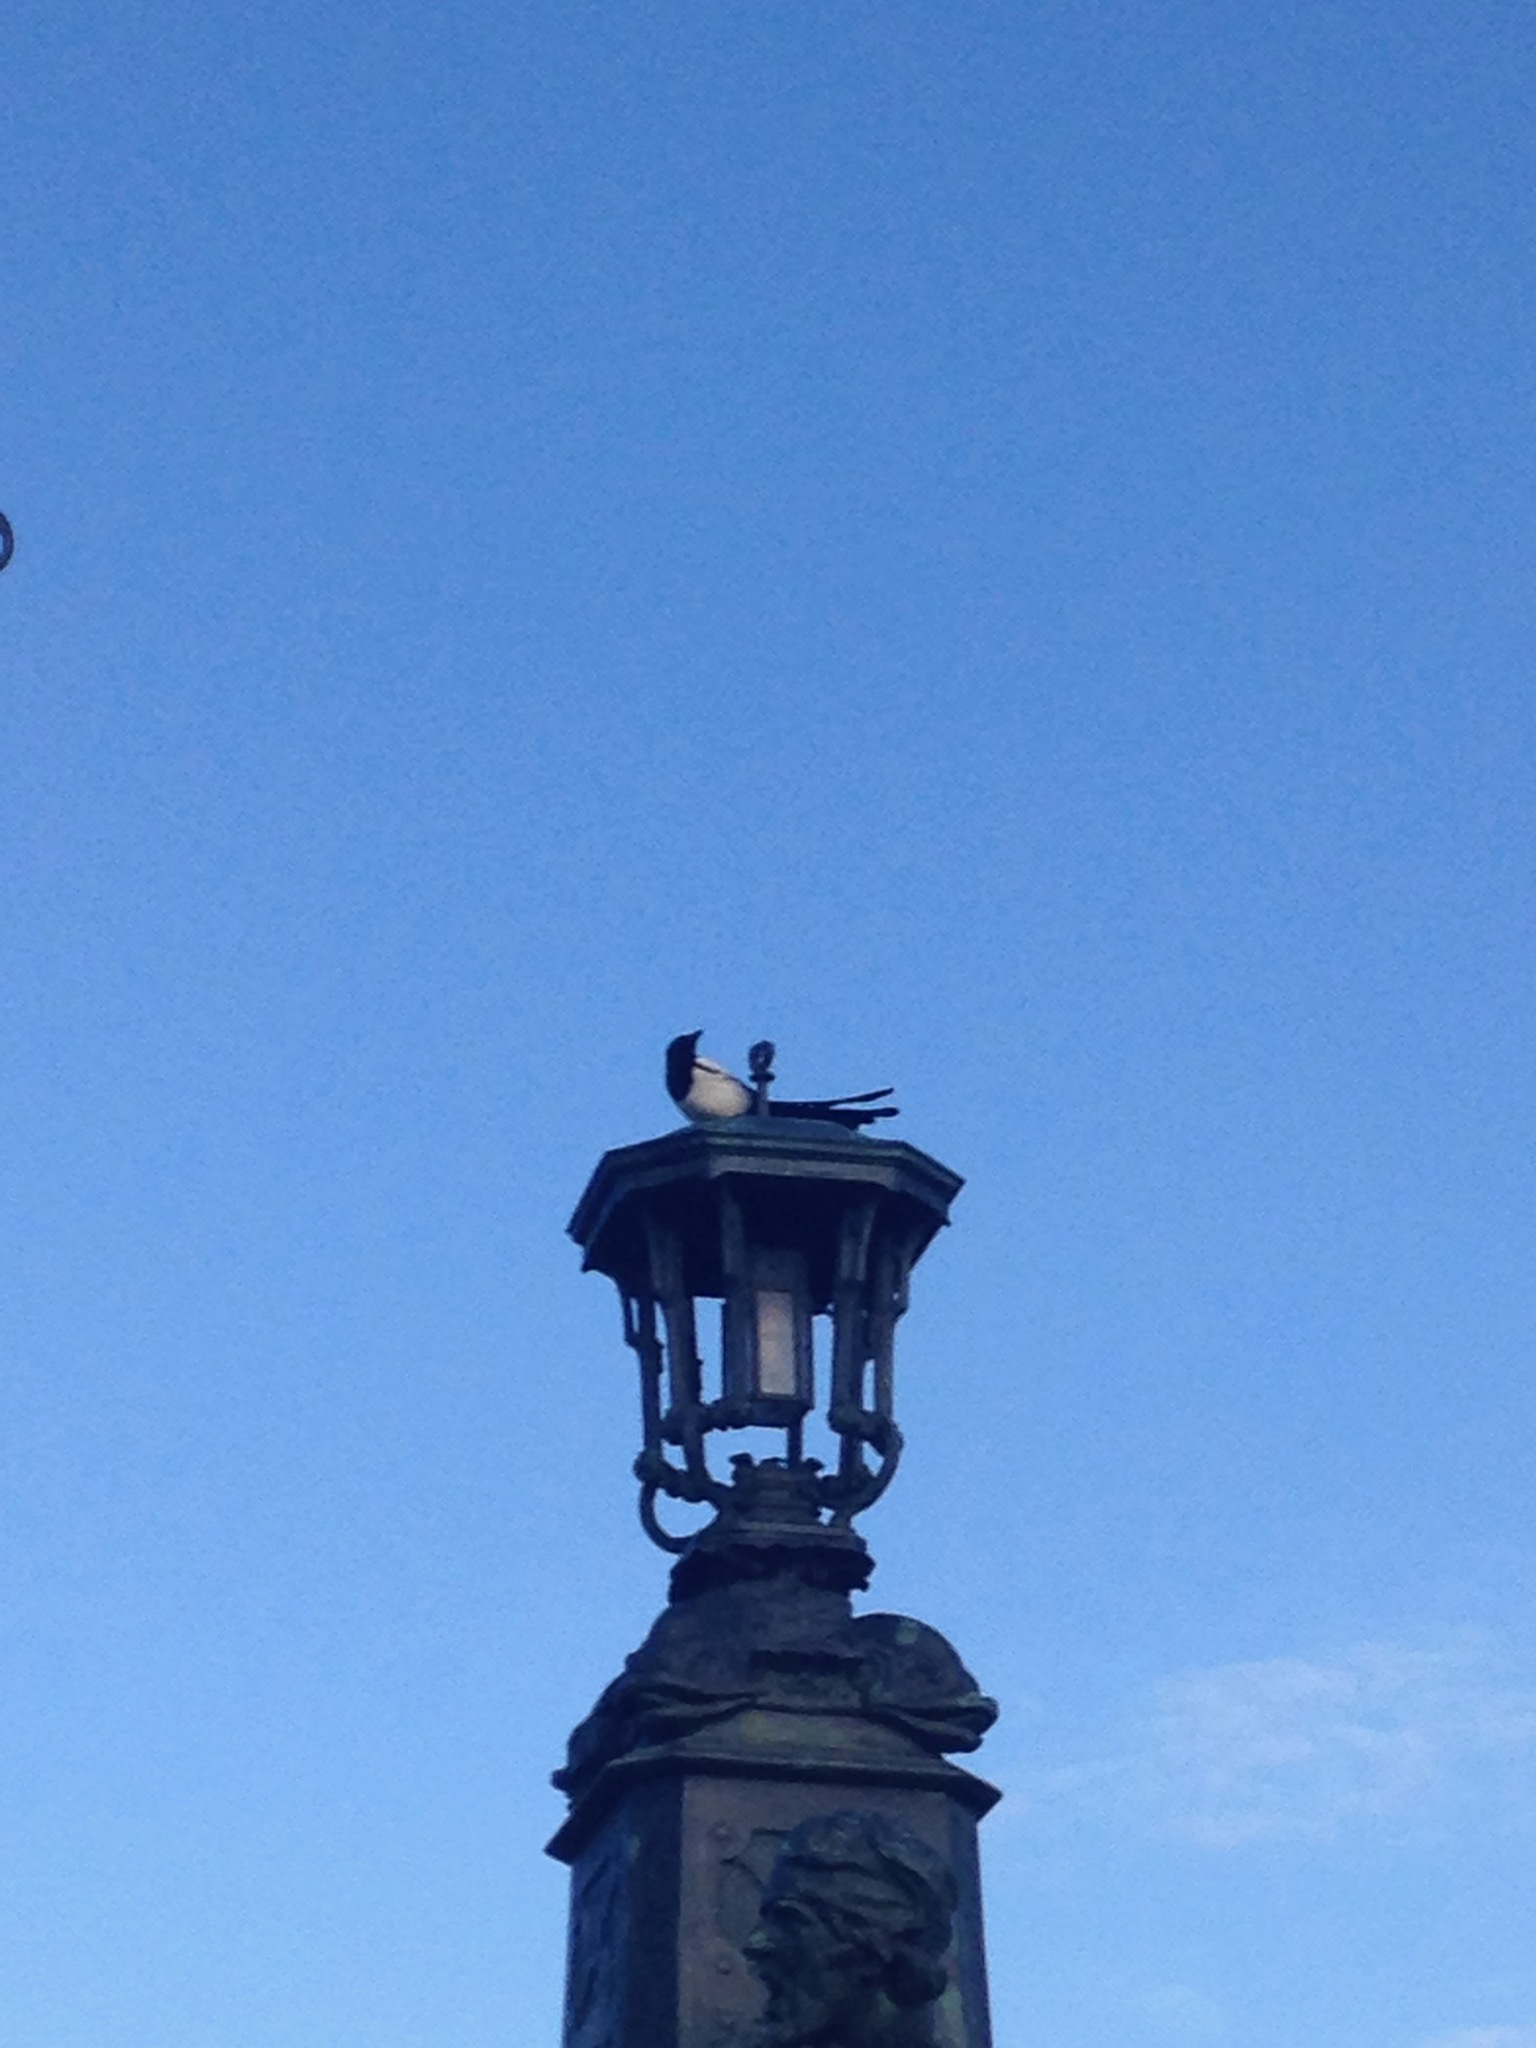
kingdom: Animalia
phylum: Chordata
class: Aves
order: Passeriformes
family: Corvidae
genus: Pica
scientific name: Pica pica
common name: Eurasian magpie
